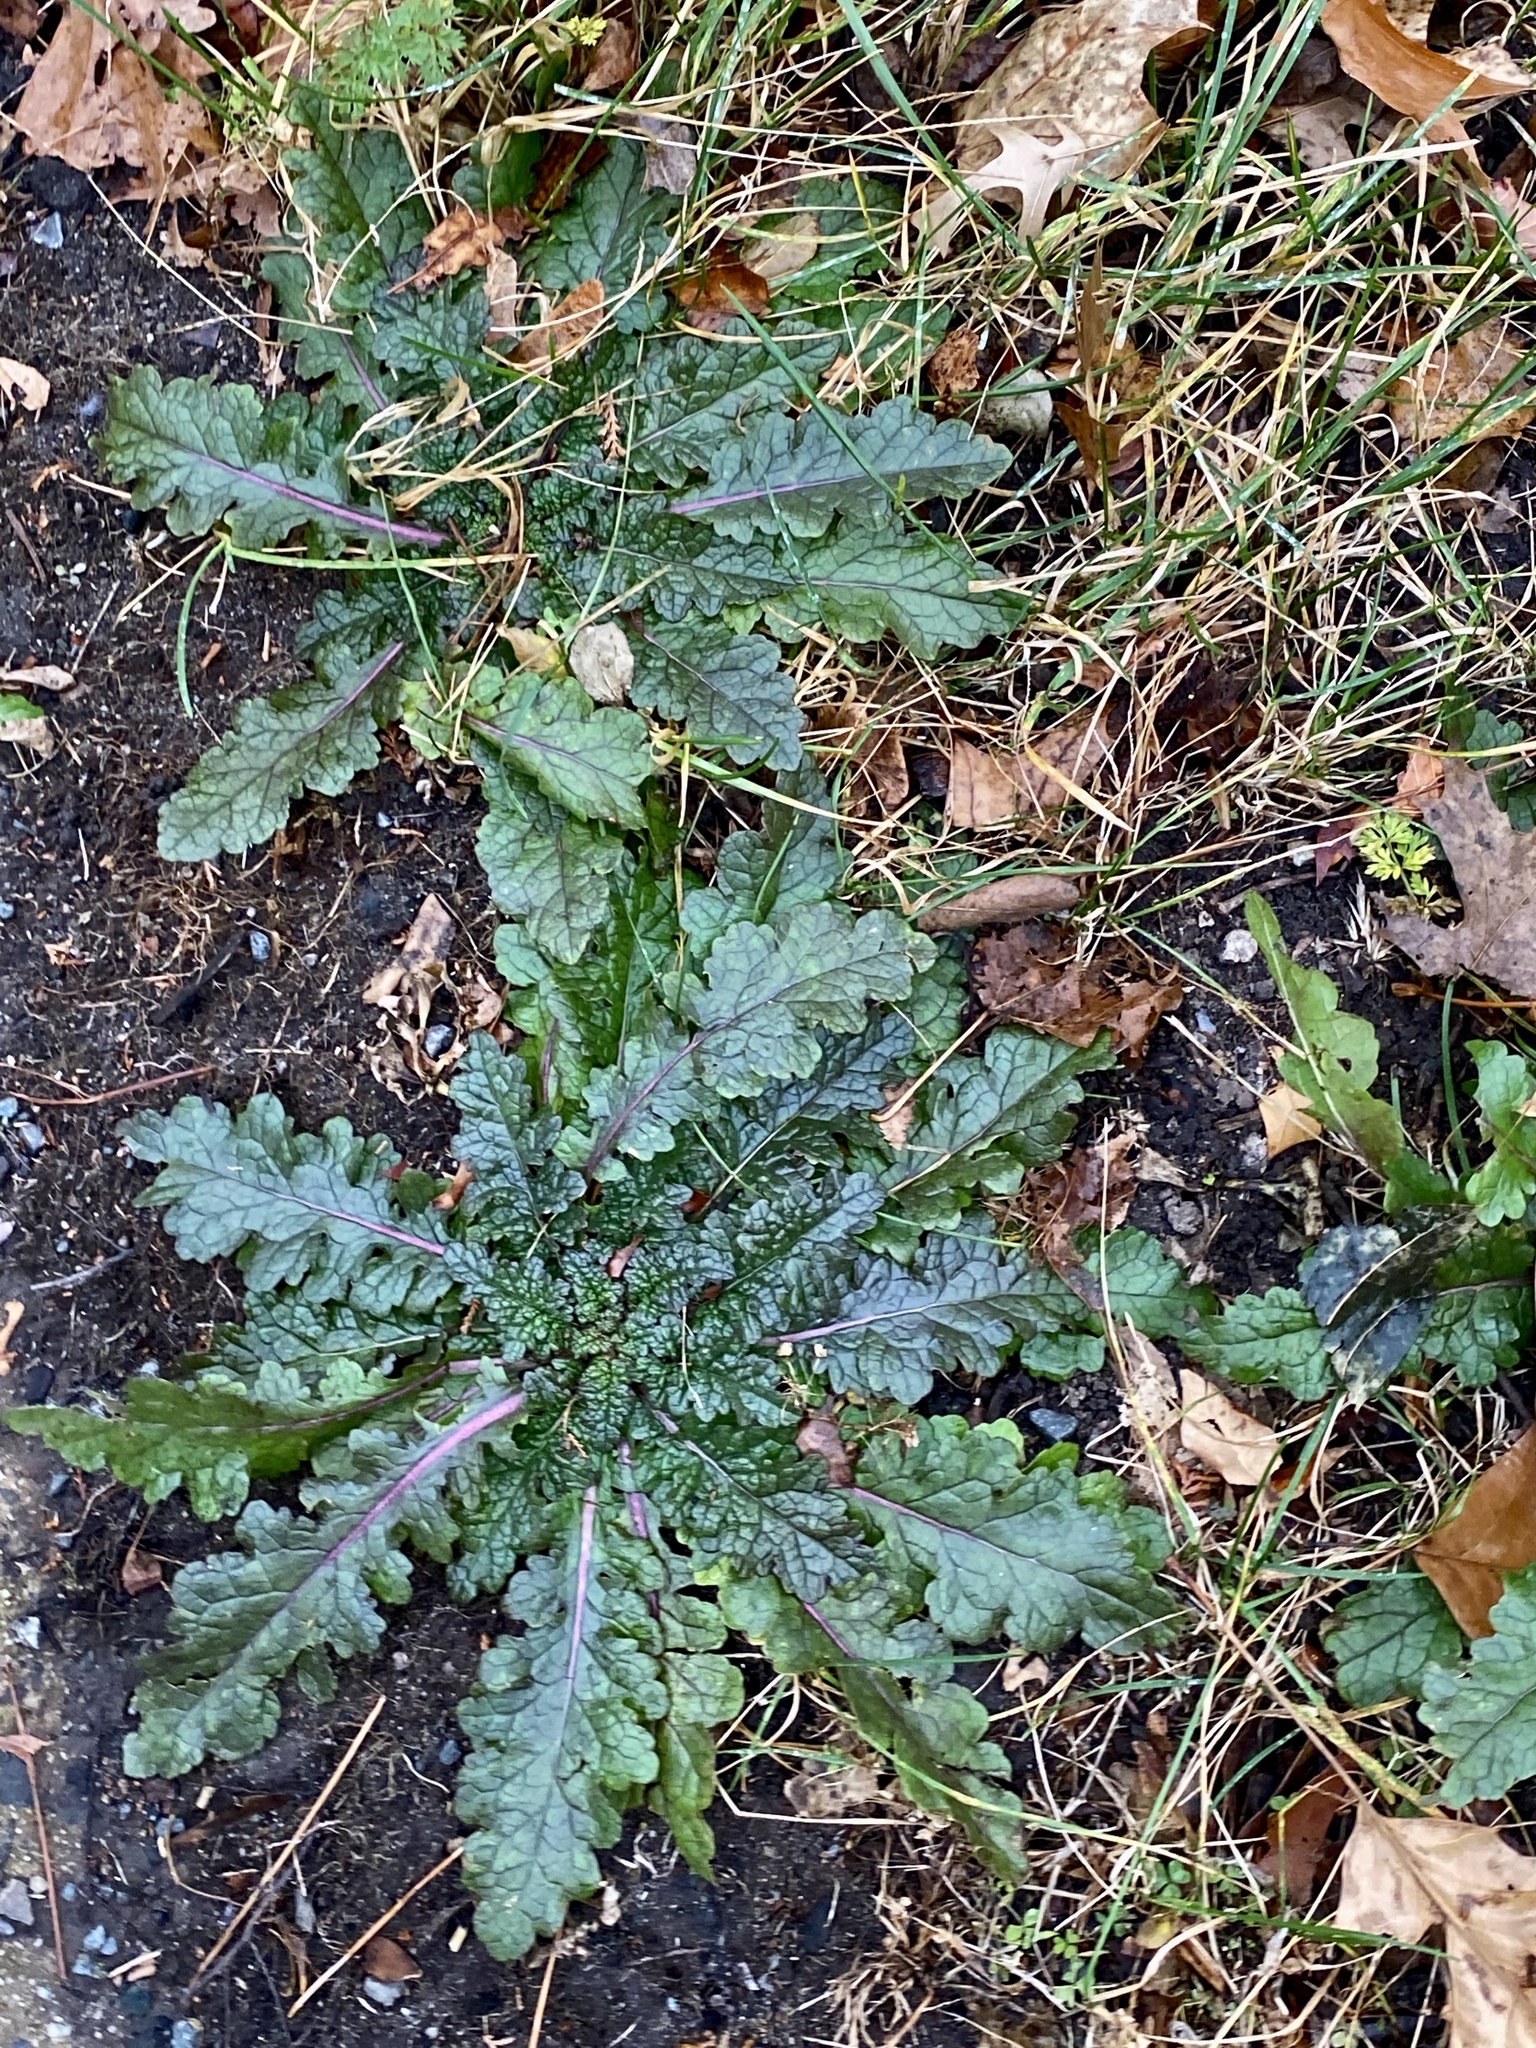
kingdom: Plantae
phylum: Tracheophyta
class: Magnoliopsida
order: Lamiales
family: Scrophulariaceae
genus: Verbascum
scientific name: Verbascum blattaria
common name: Moth mullein
